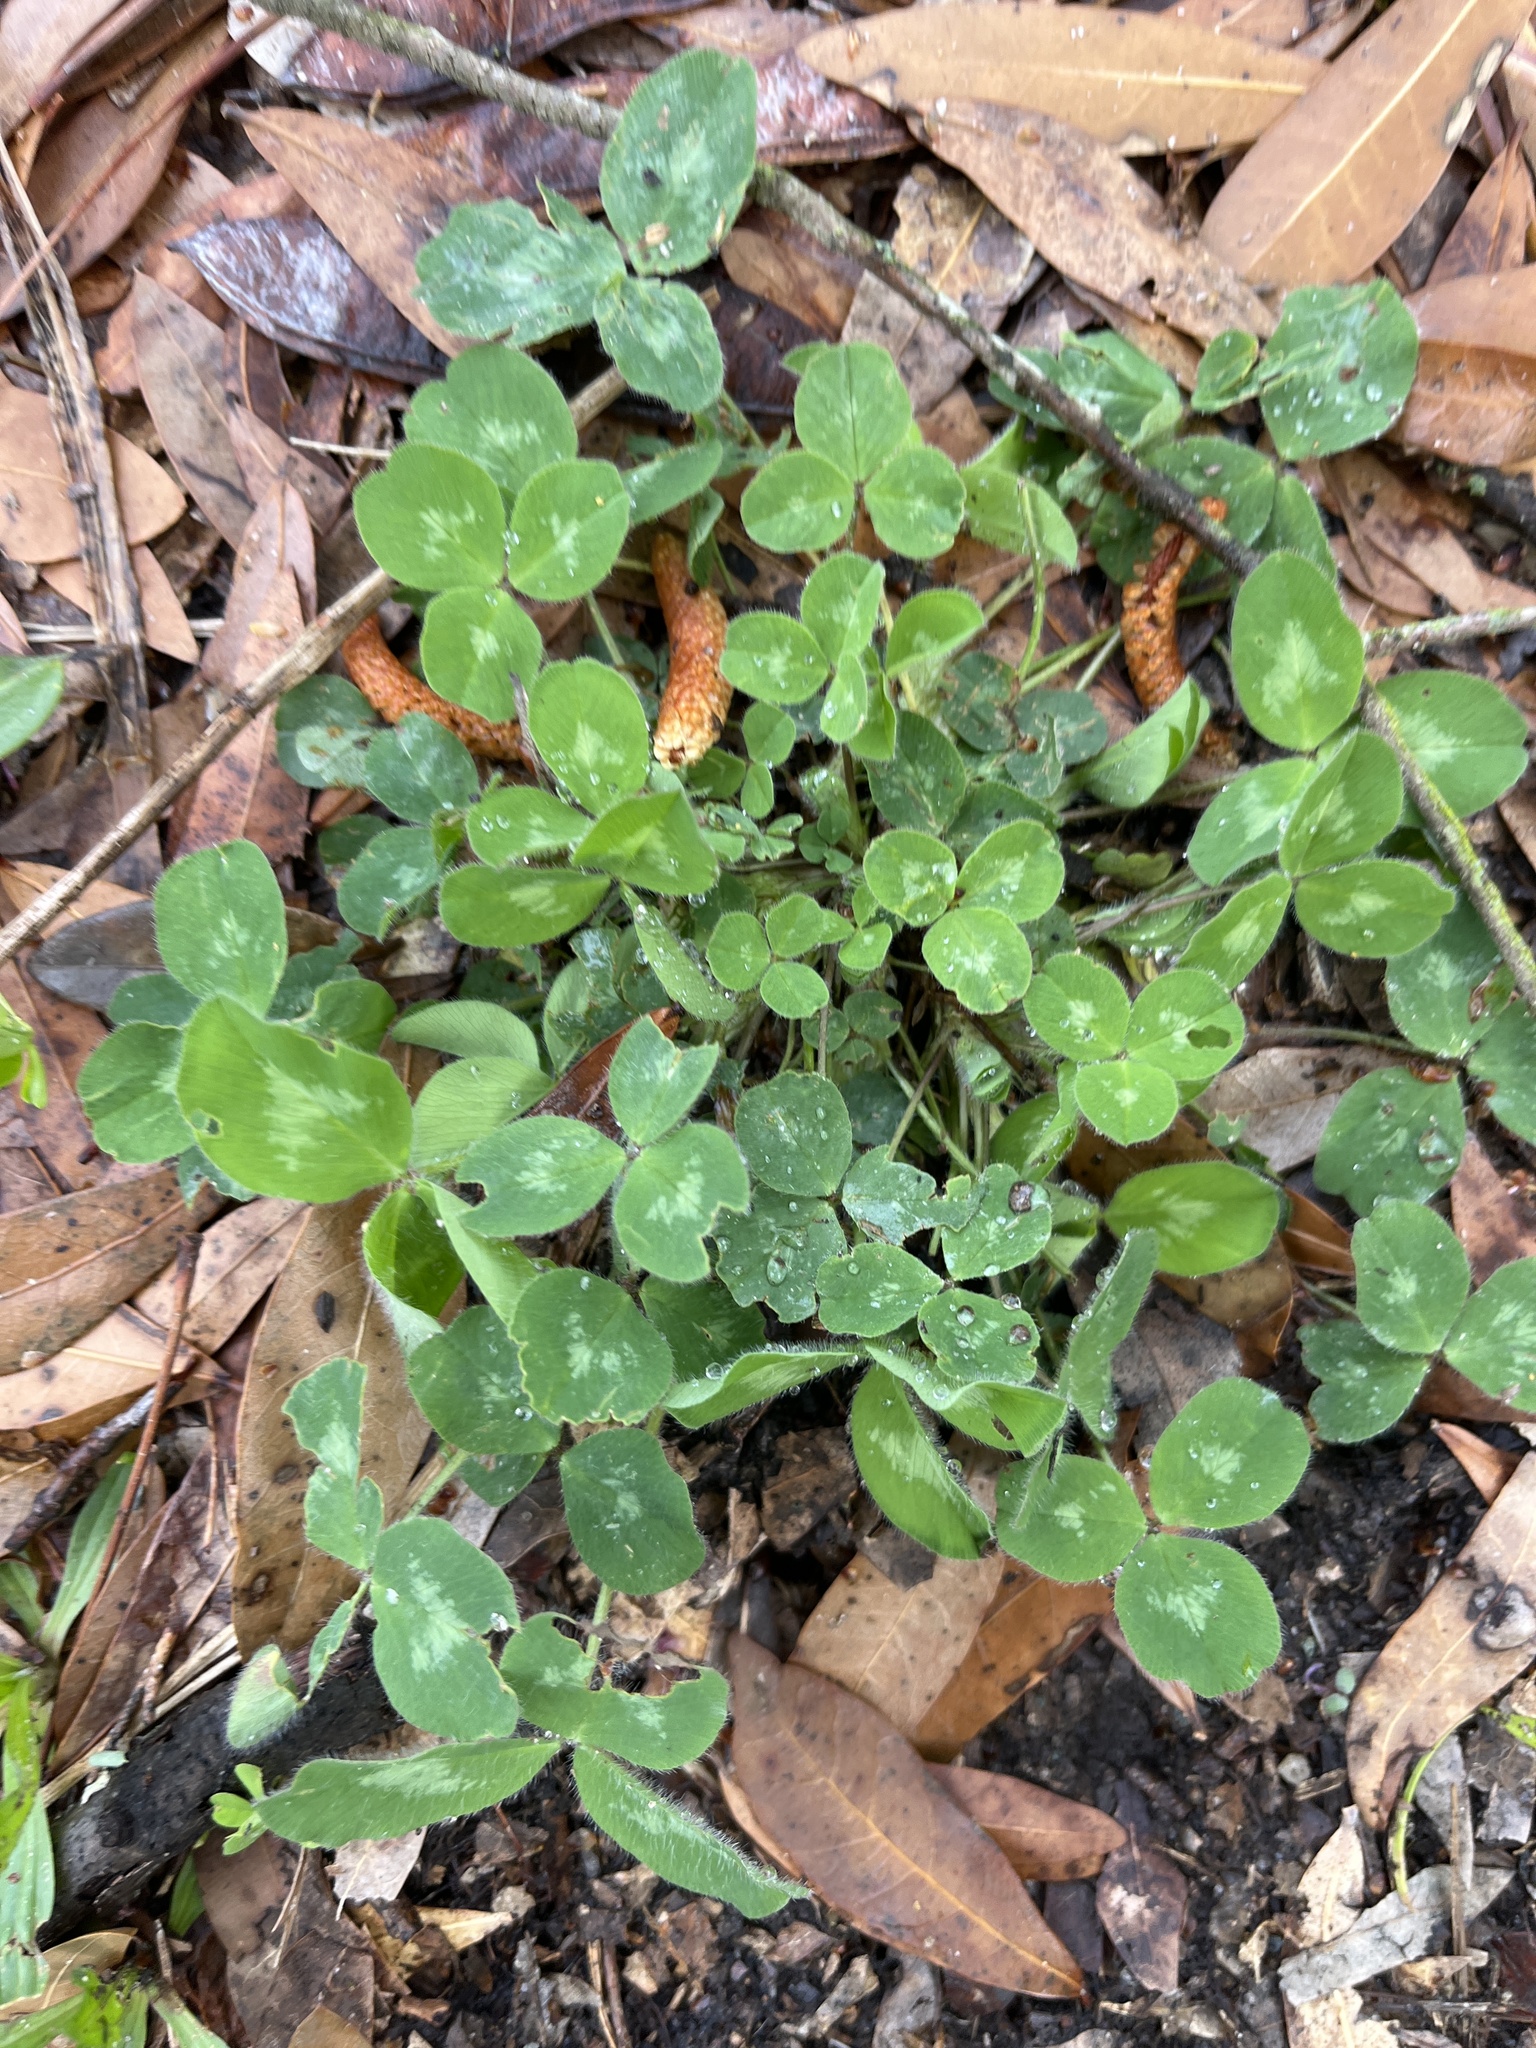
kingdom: Plantae
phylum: Tracheophyta
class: Magnoliopsida
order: Fabales
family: Fabaceae
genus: Trifolium
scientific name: Trifolium pratense
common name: Red clover
